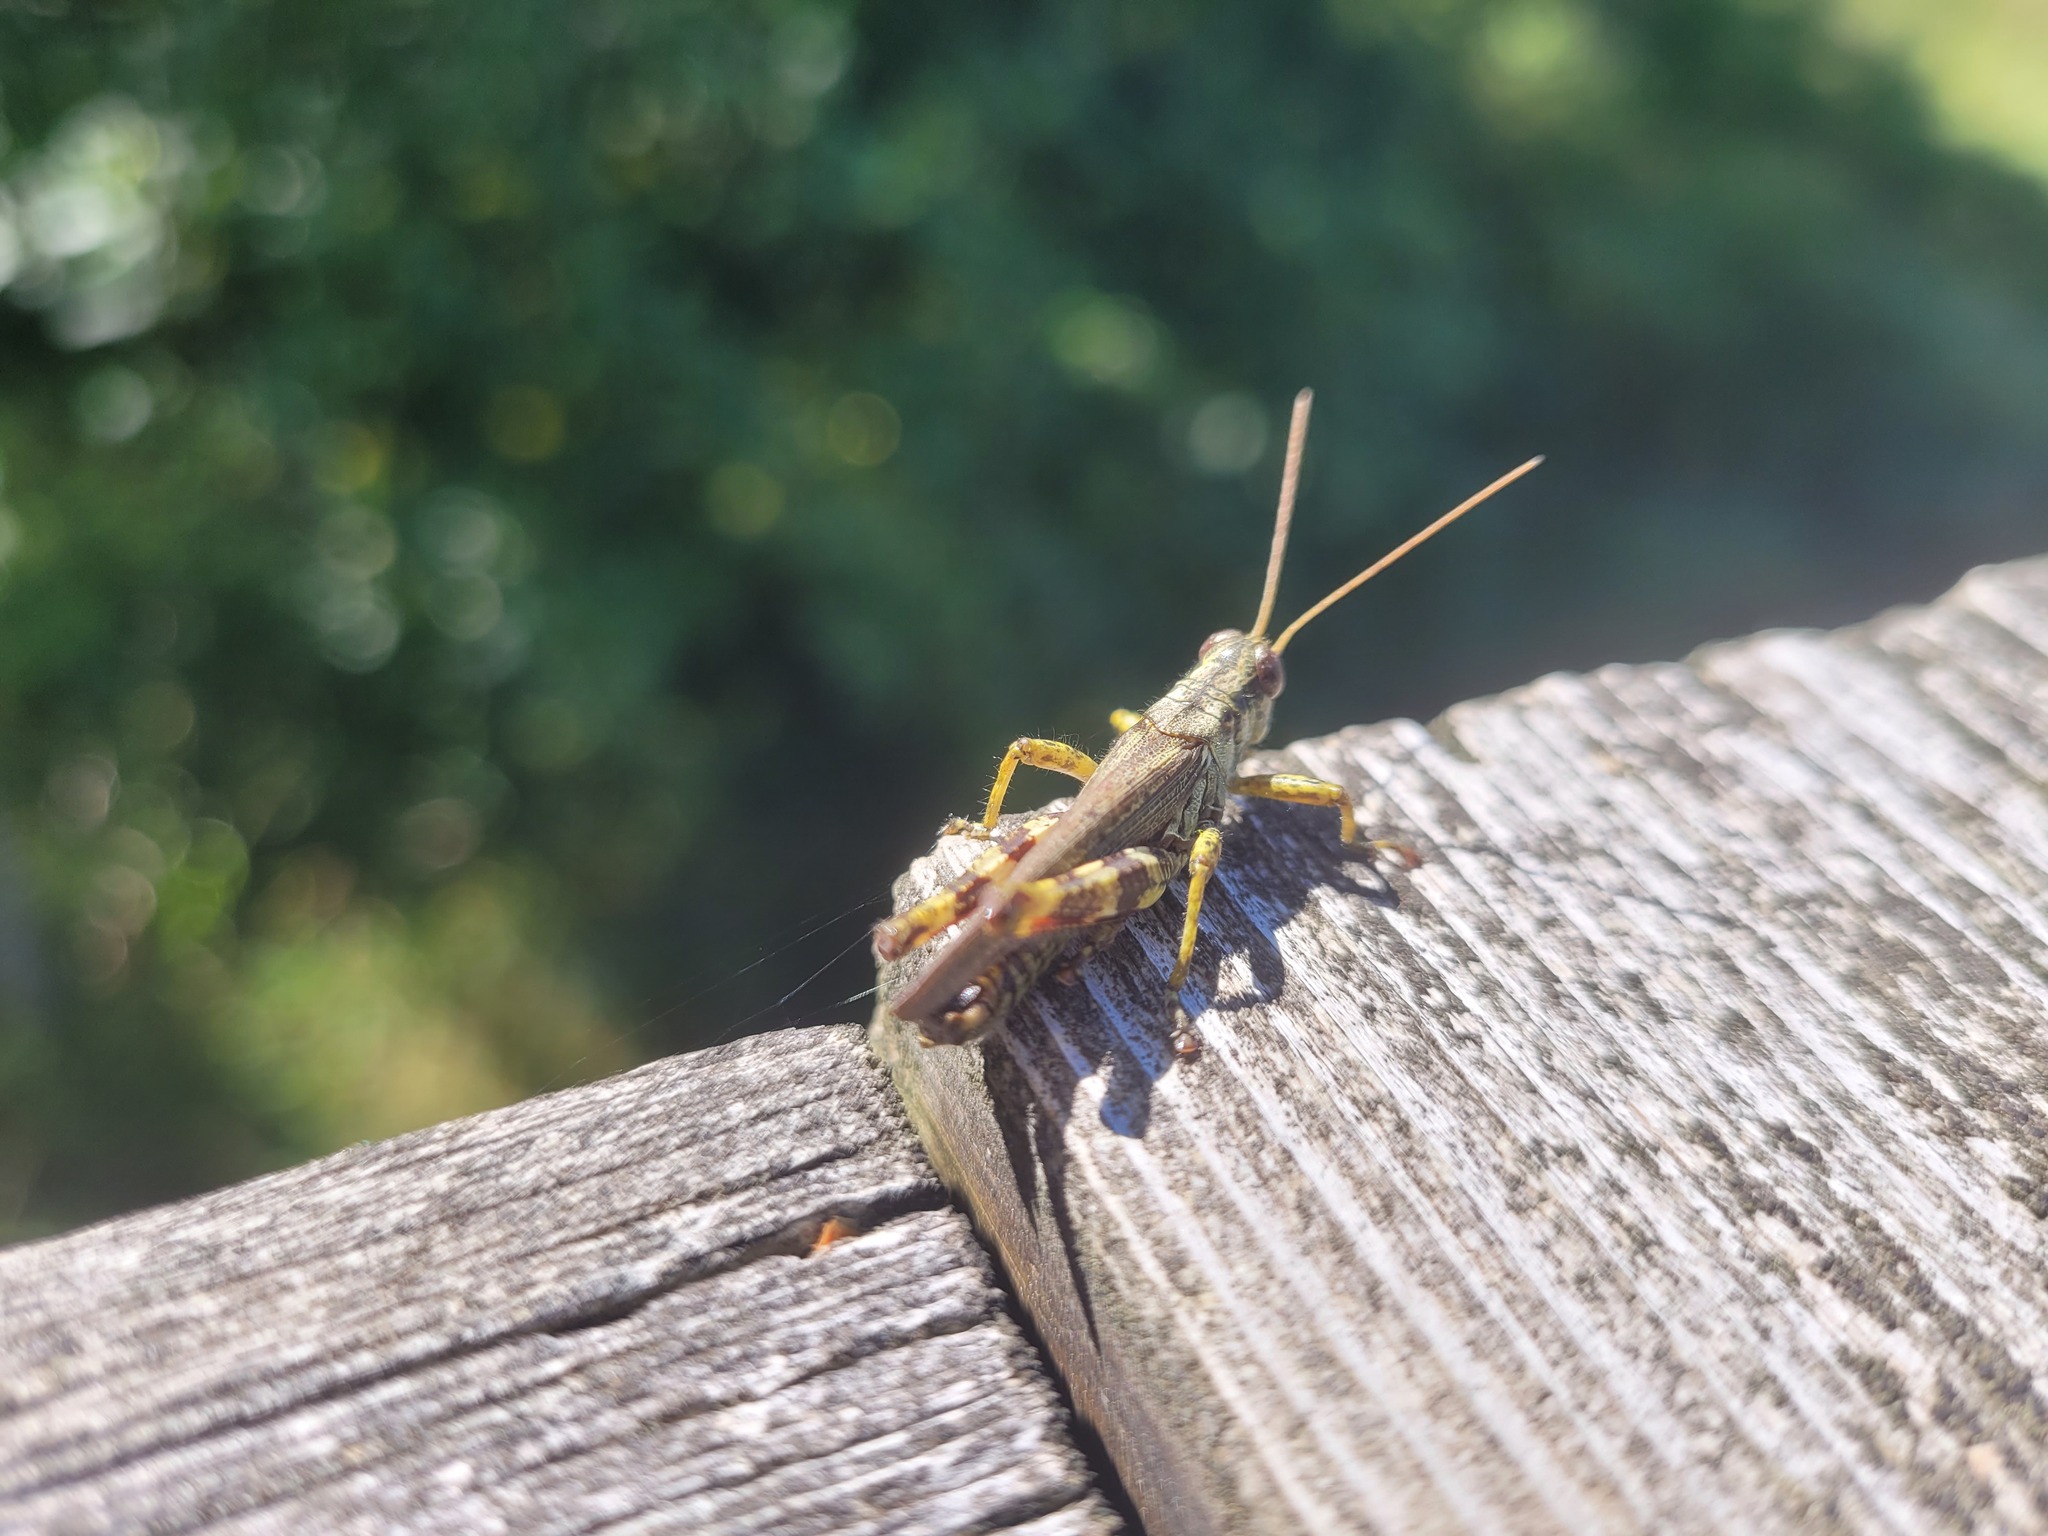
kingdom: Animalia
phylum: Arthropoda
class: Insecta
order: Orthoptera
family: Acrididae
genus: Melanoplus
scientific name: Melanoplus punctulatus
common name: Pine-tree spur-throat grasshopper
